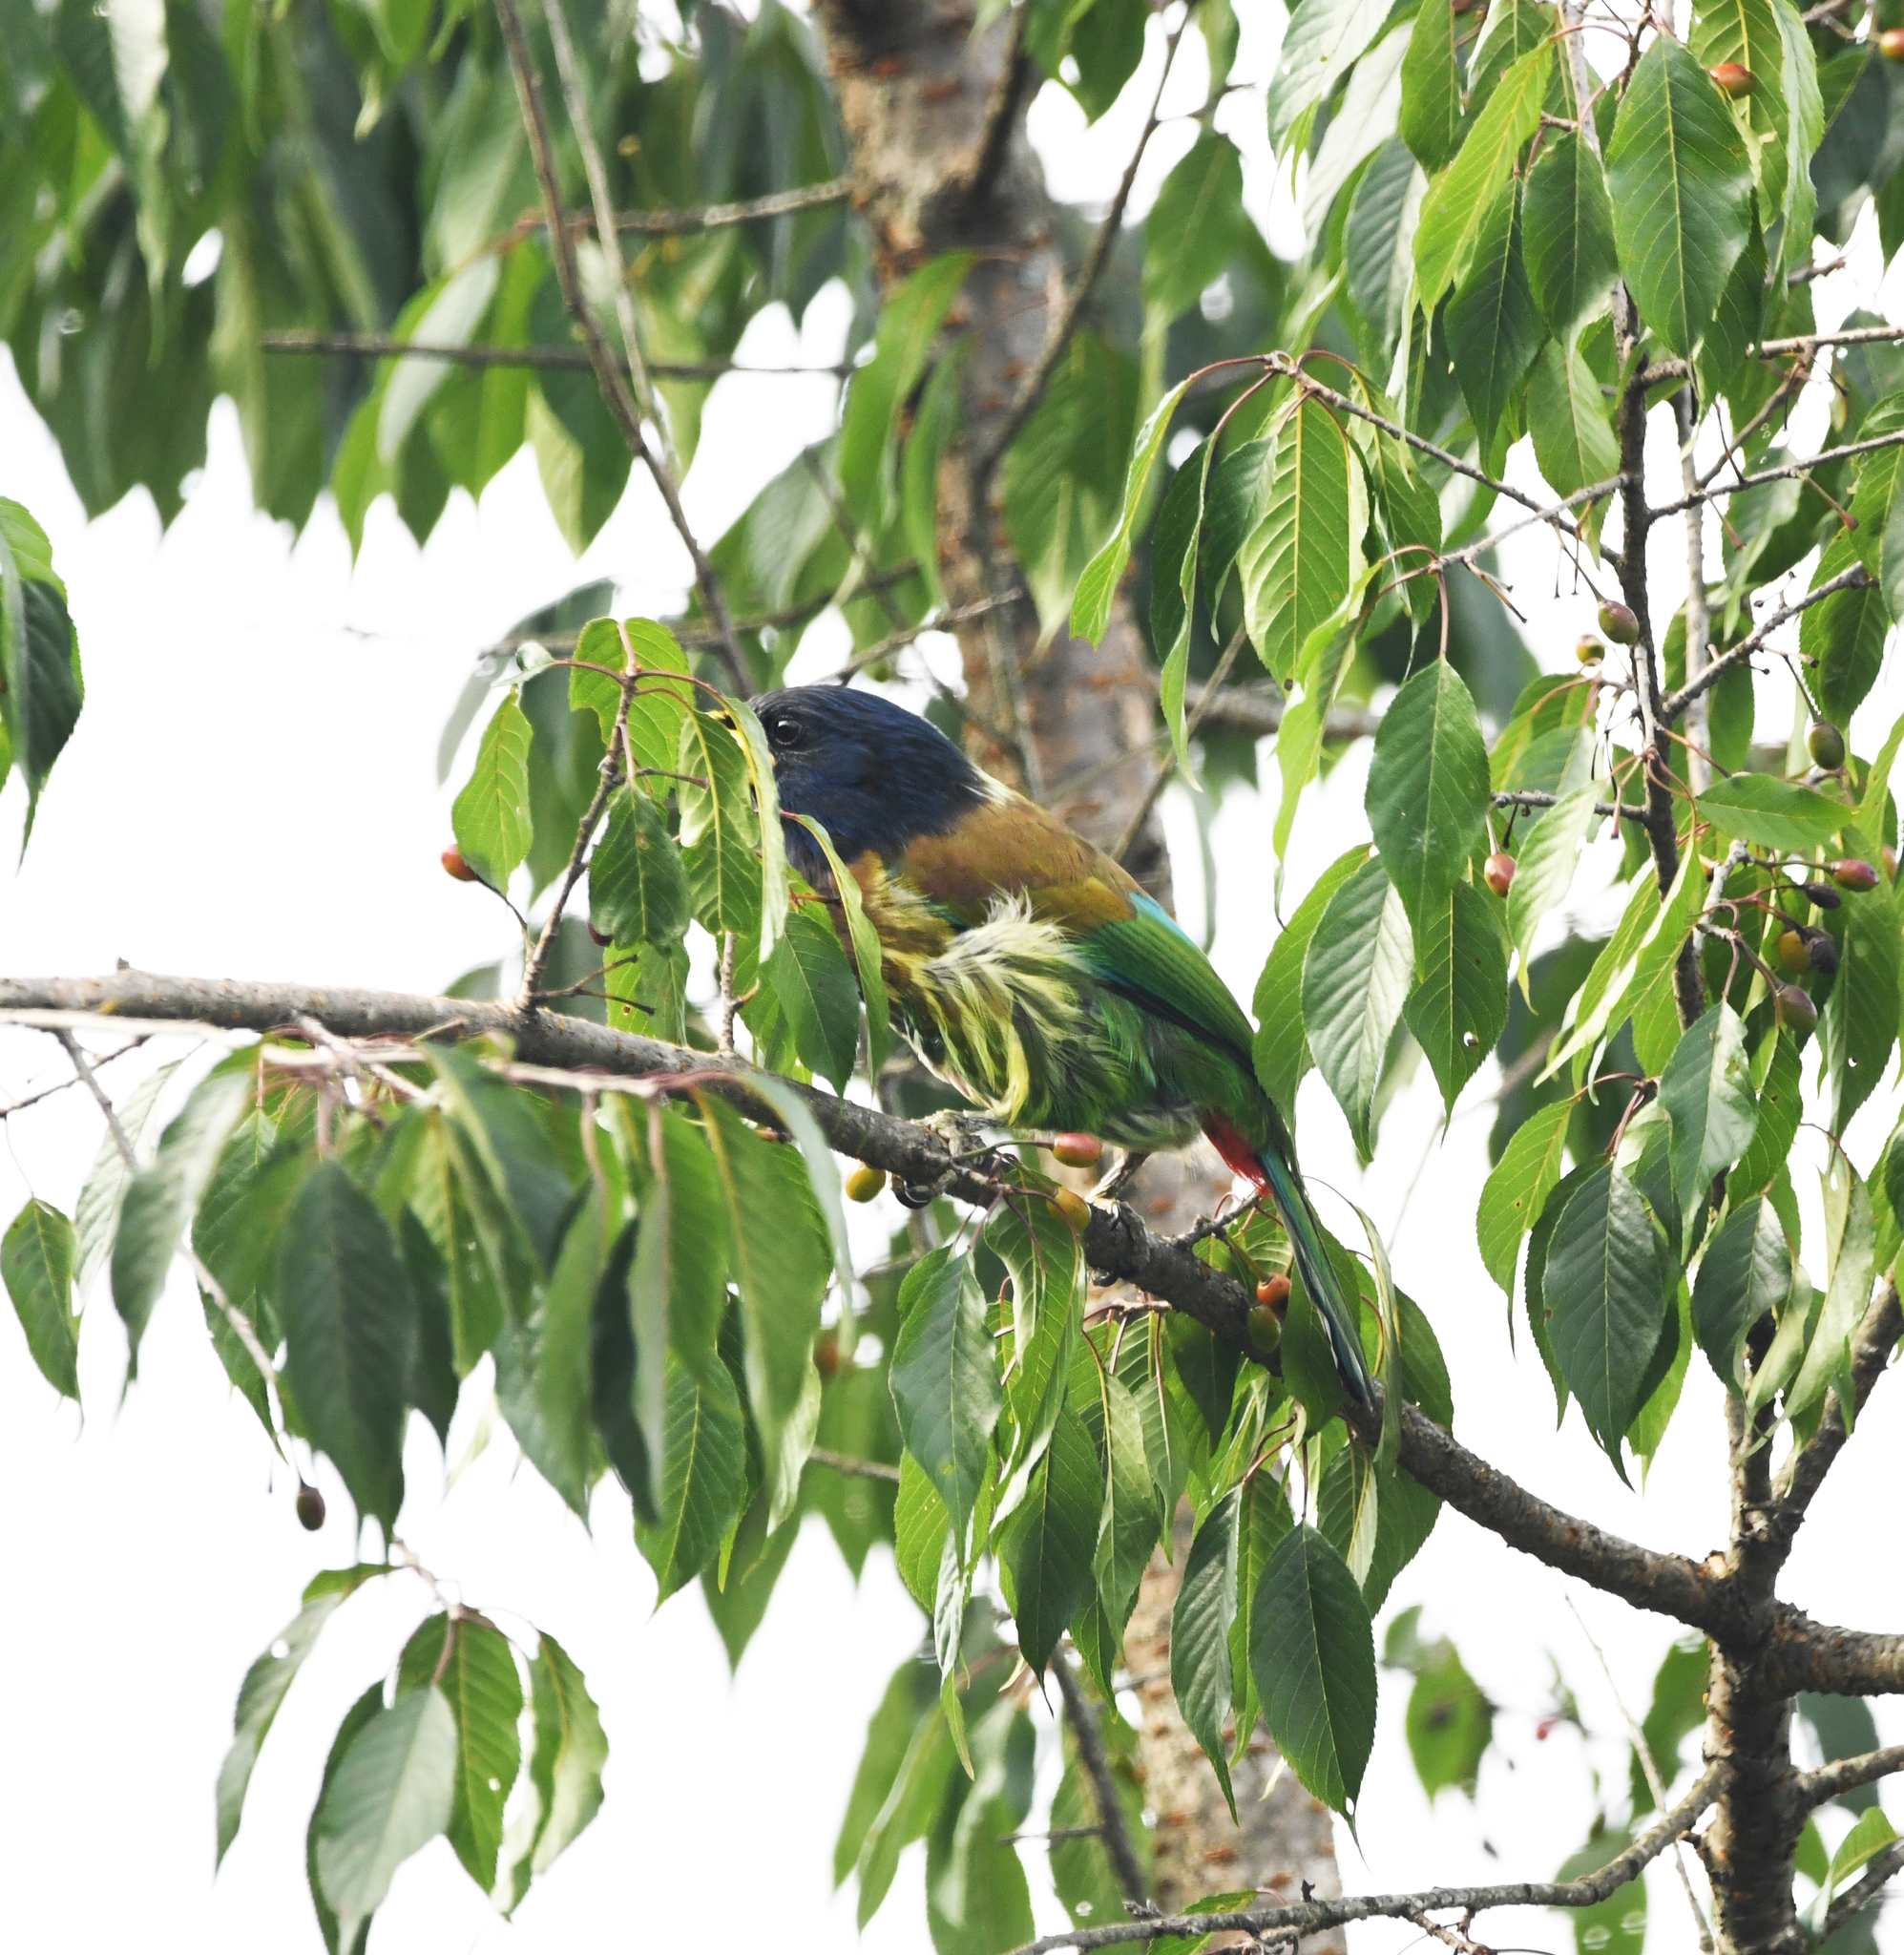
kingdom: Animalia
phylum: Chordata
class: Aves
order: Piciformes
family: Megalaimidae
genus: Psilopogon
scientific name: Psilopogon virens
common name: Great barbet
